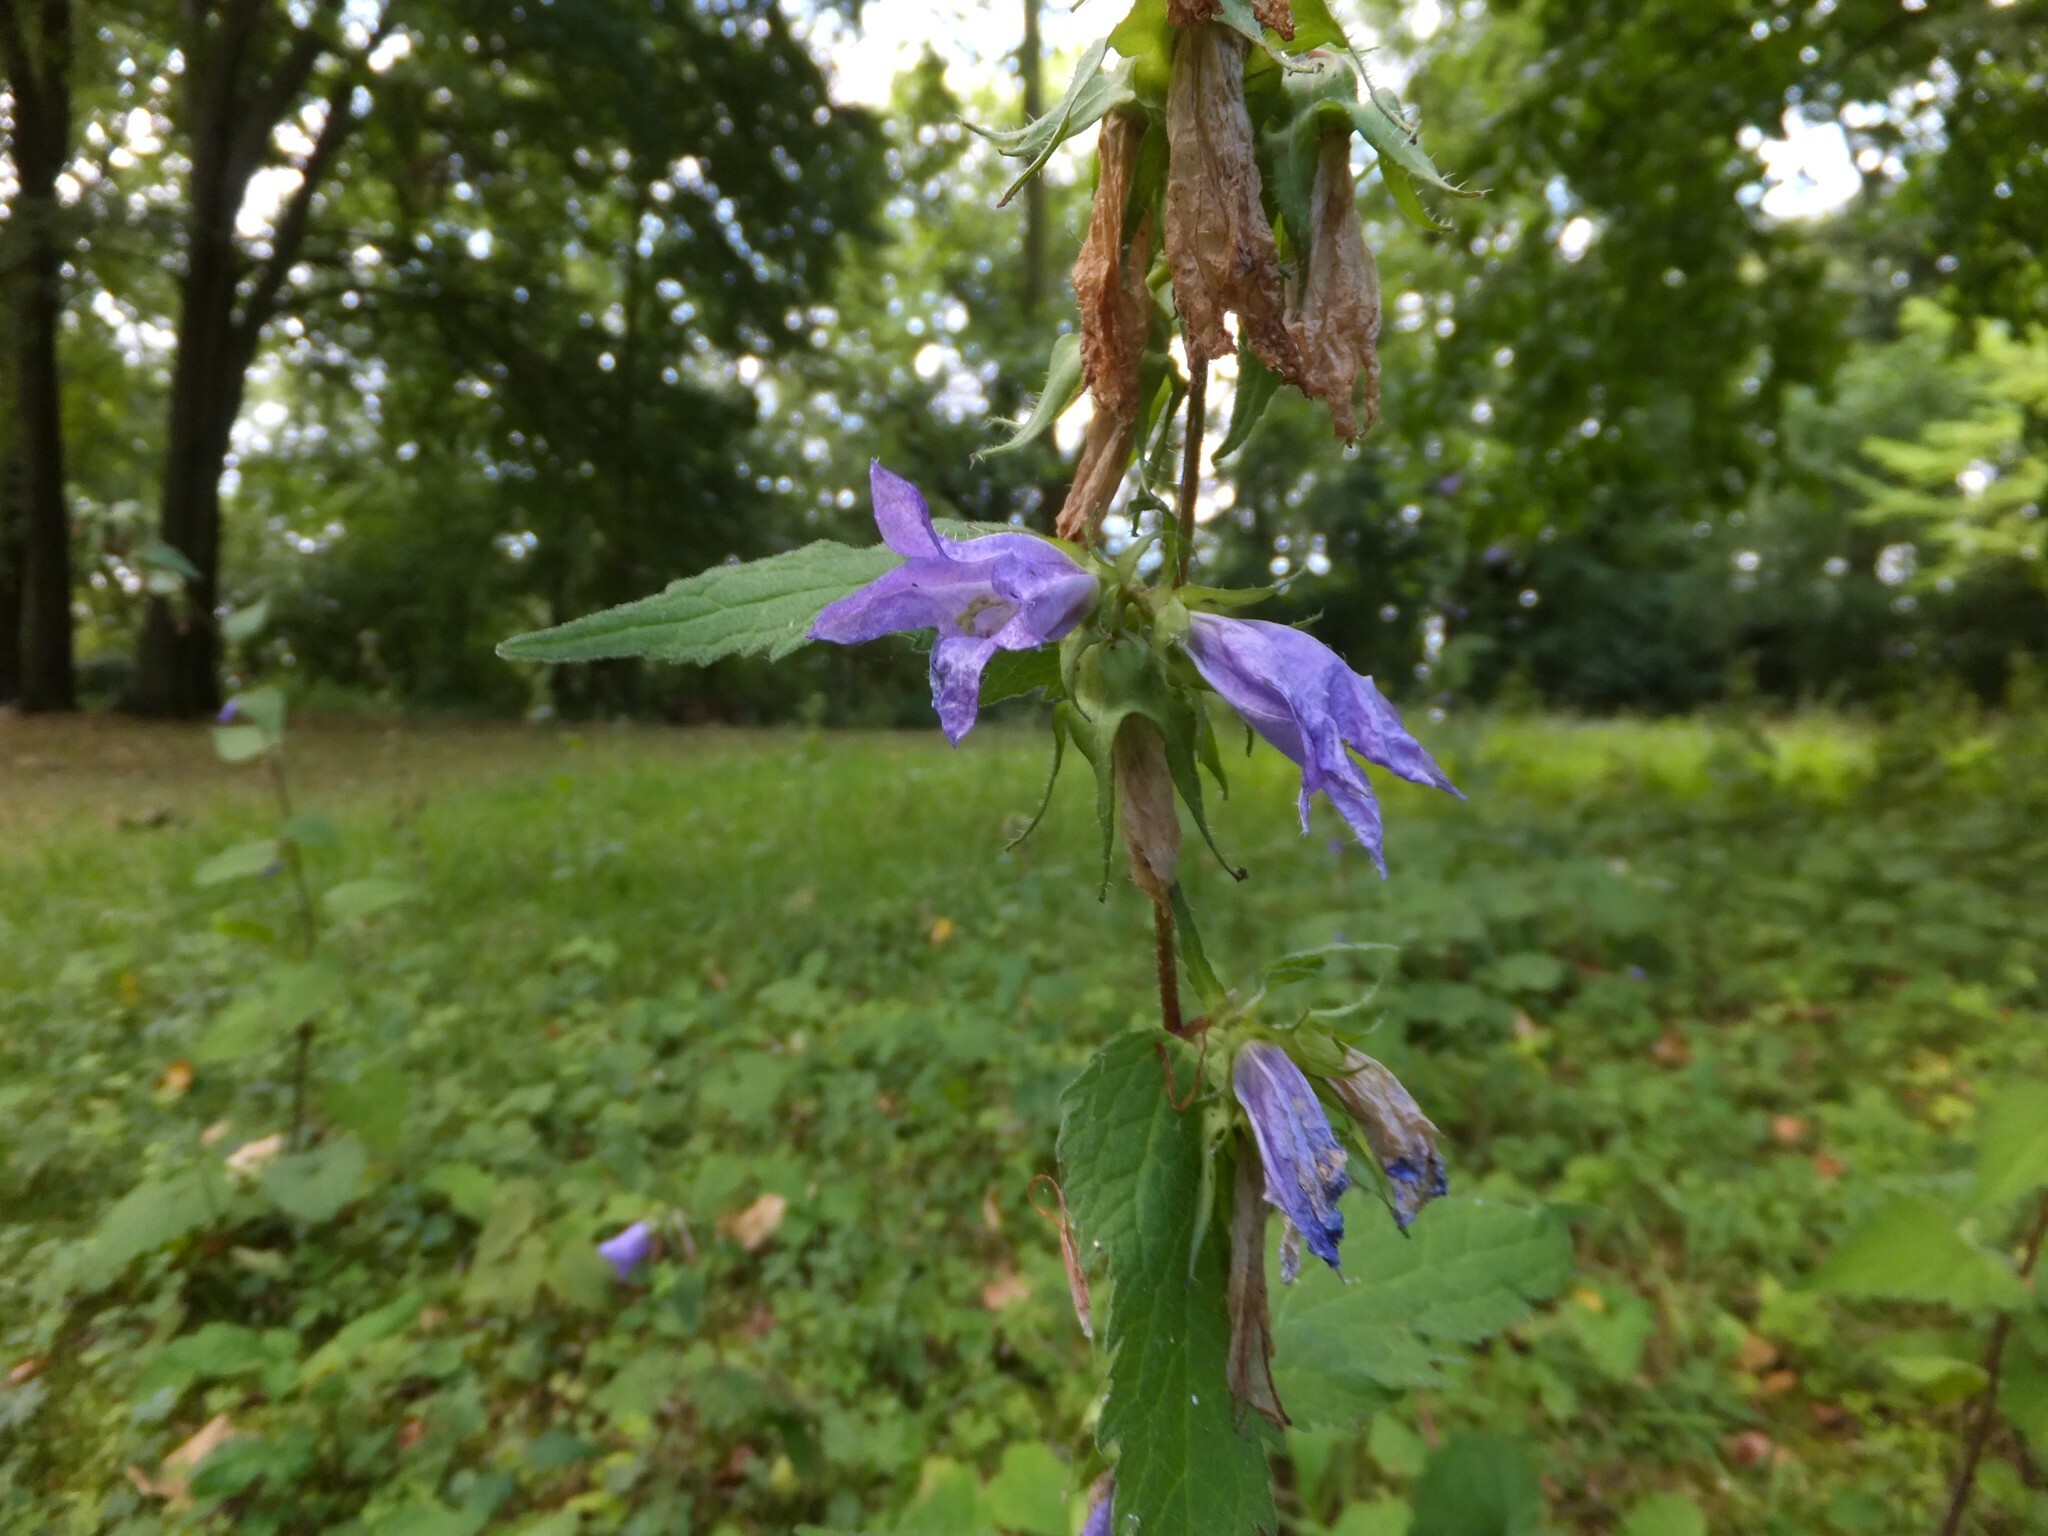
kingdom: Plantae
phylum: Tracheophyta
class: Magnoliopsida
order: Asterales
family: Campanulaceae
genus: Campanula
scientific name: Campanula trachelium
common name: Nettle-leaved bellflower
